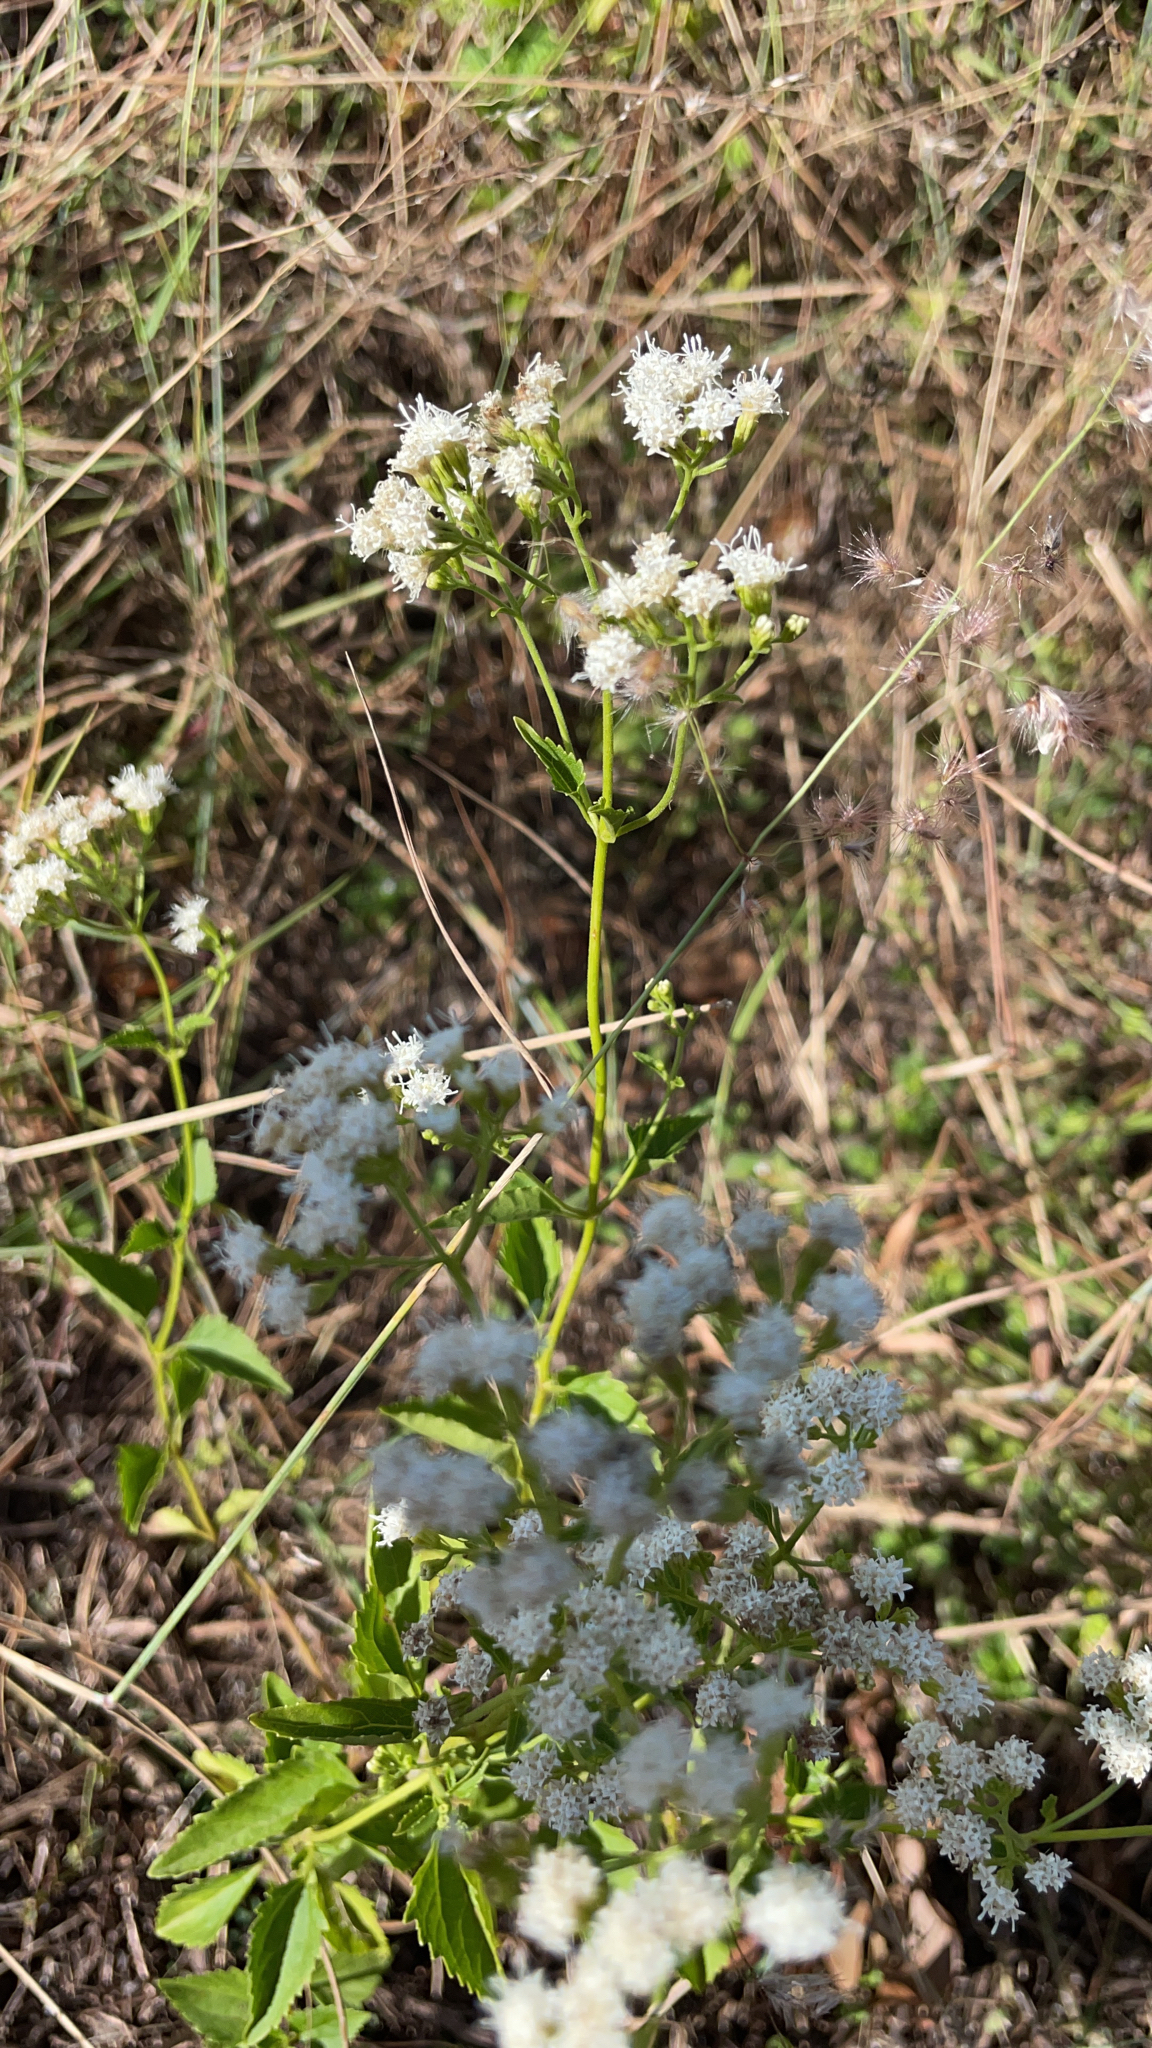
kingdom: Plantae
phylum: Tracheophyta
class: Magnoliopsida
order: Asterales
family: Asteraceae
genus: Ageratina
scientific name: Ageratina jucunda
